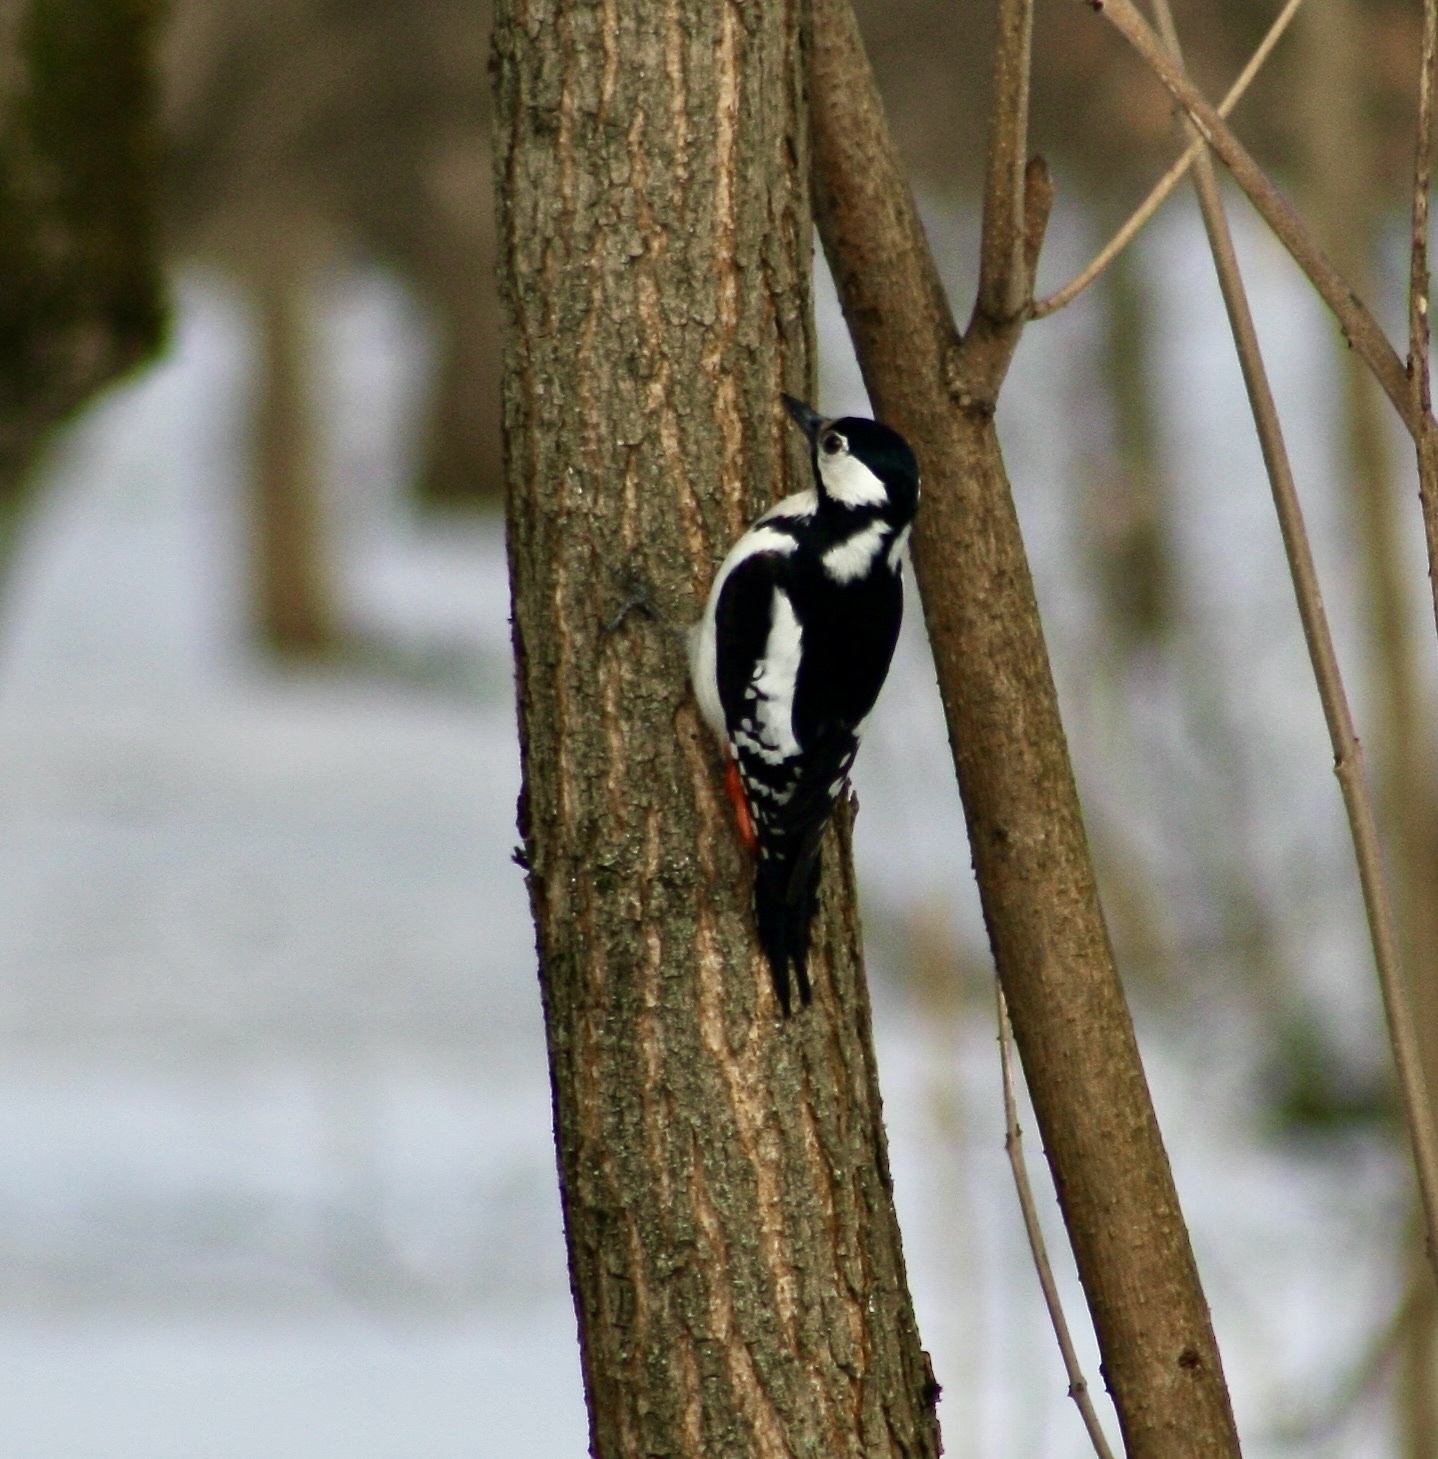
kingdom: Animalia
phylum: Chordata
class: Aves
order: Piciformes
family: Picidae
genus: Dendrocopos
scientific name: Dendrocopos major
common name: Great spotted woodpecker
